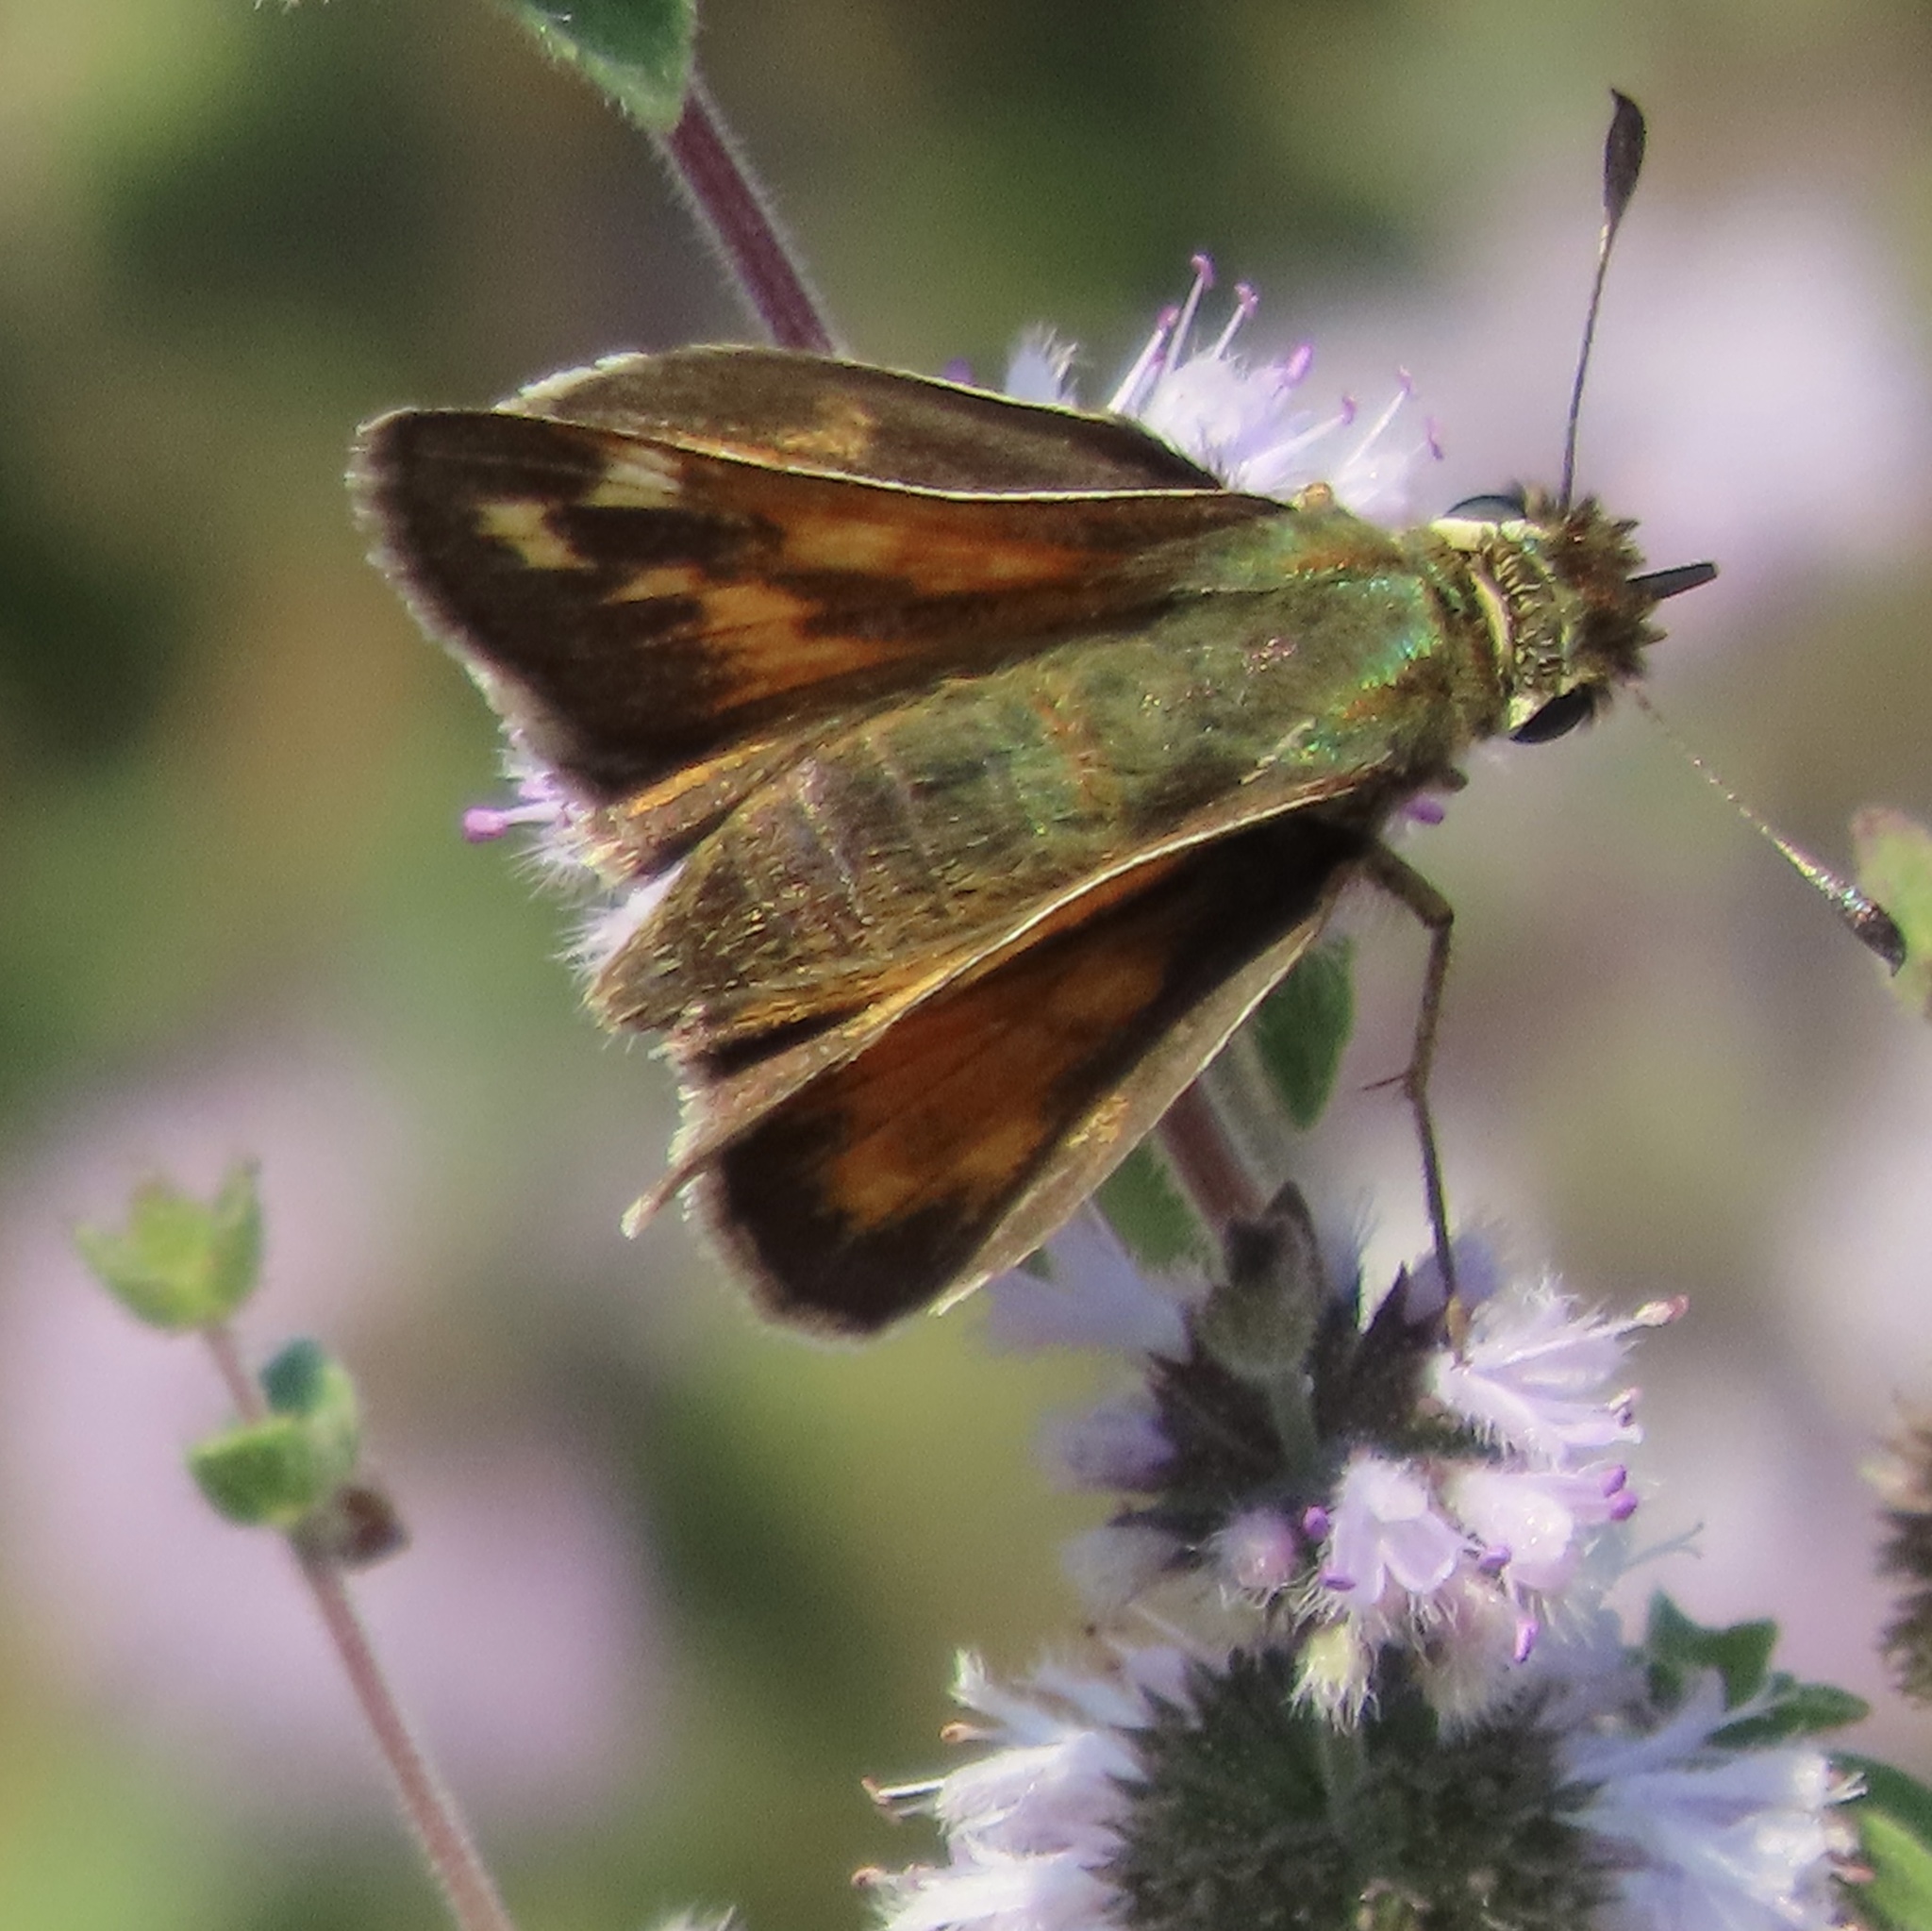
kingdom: Animalia
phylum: Arthropoda
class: Insecta
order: Lepidoptera
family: Hesperiidae
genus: Hesperia
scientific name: Hesperia harpalus
